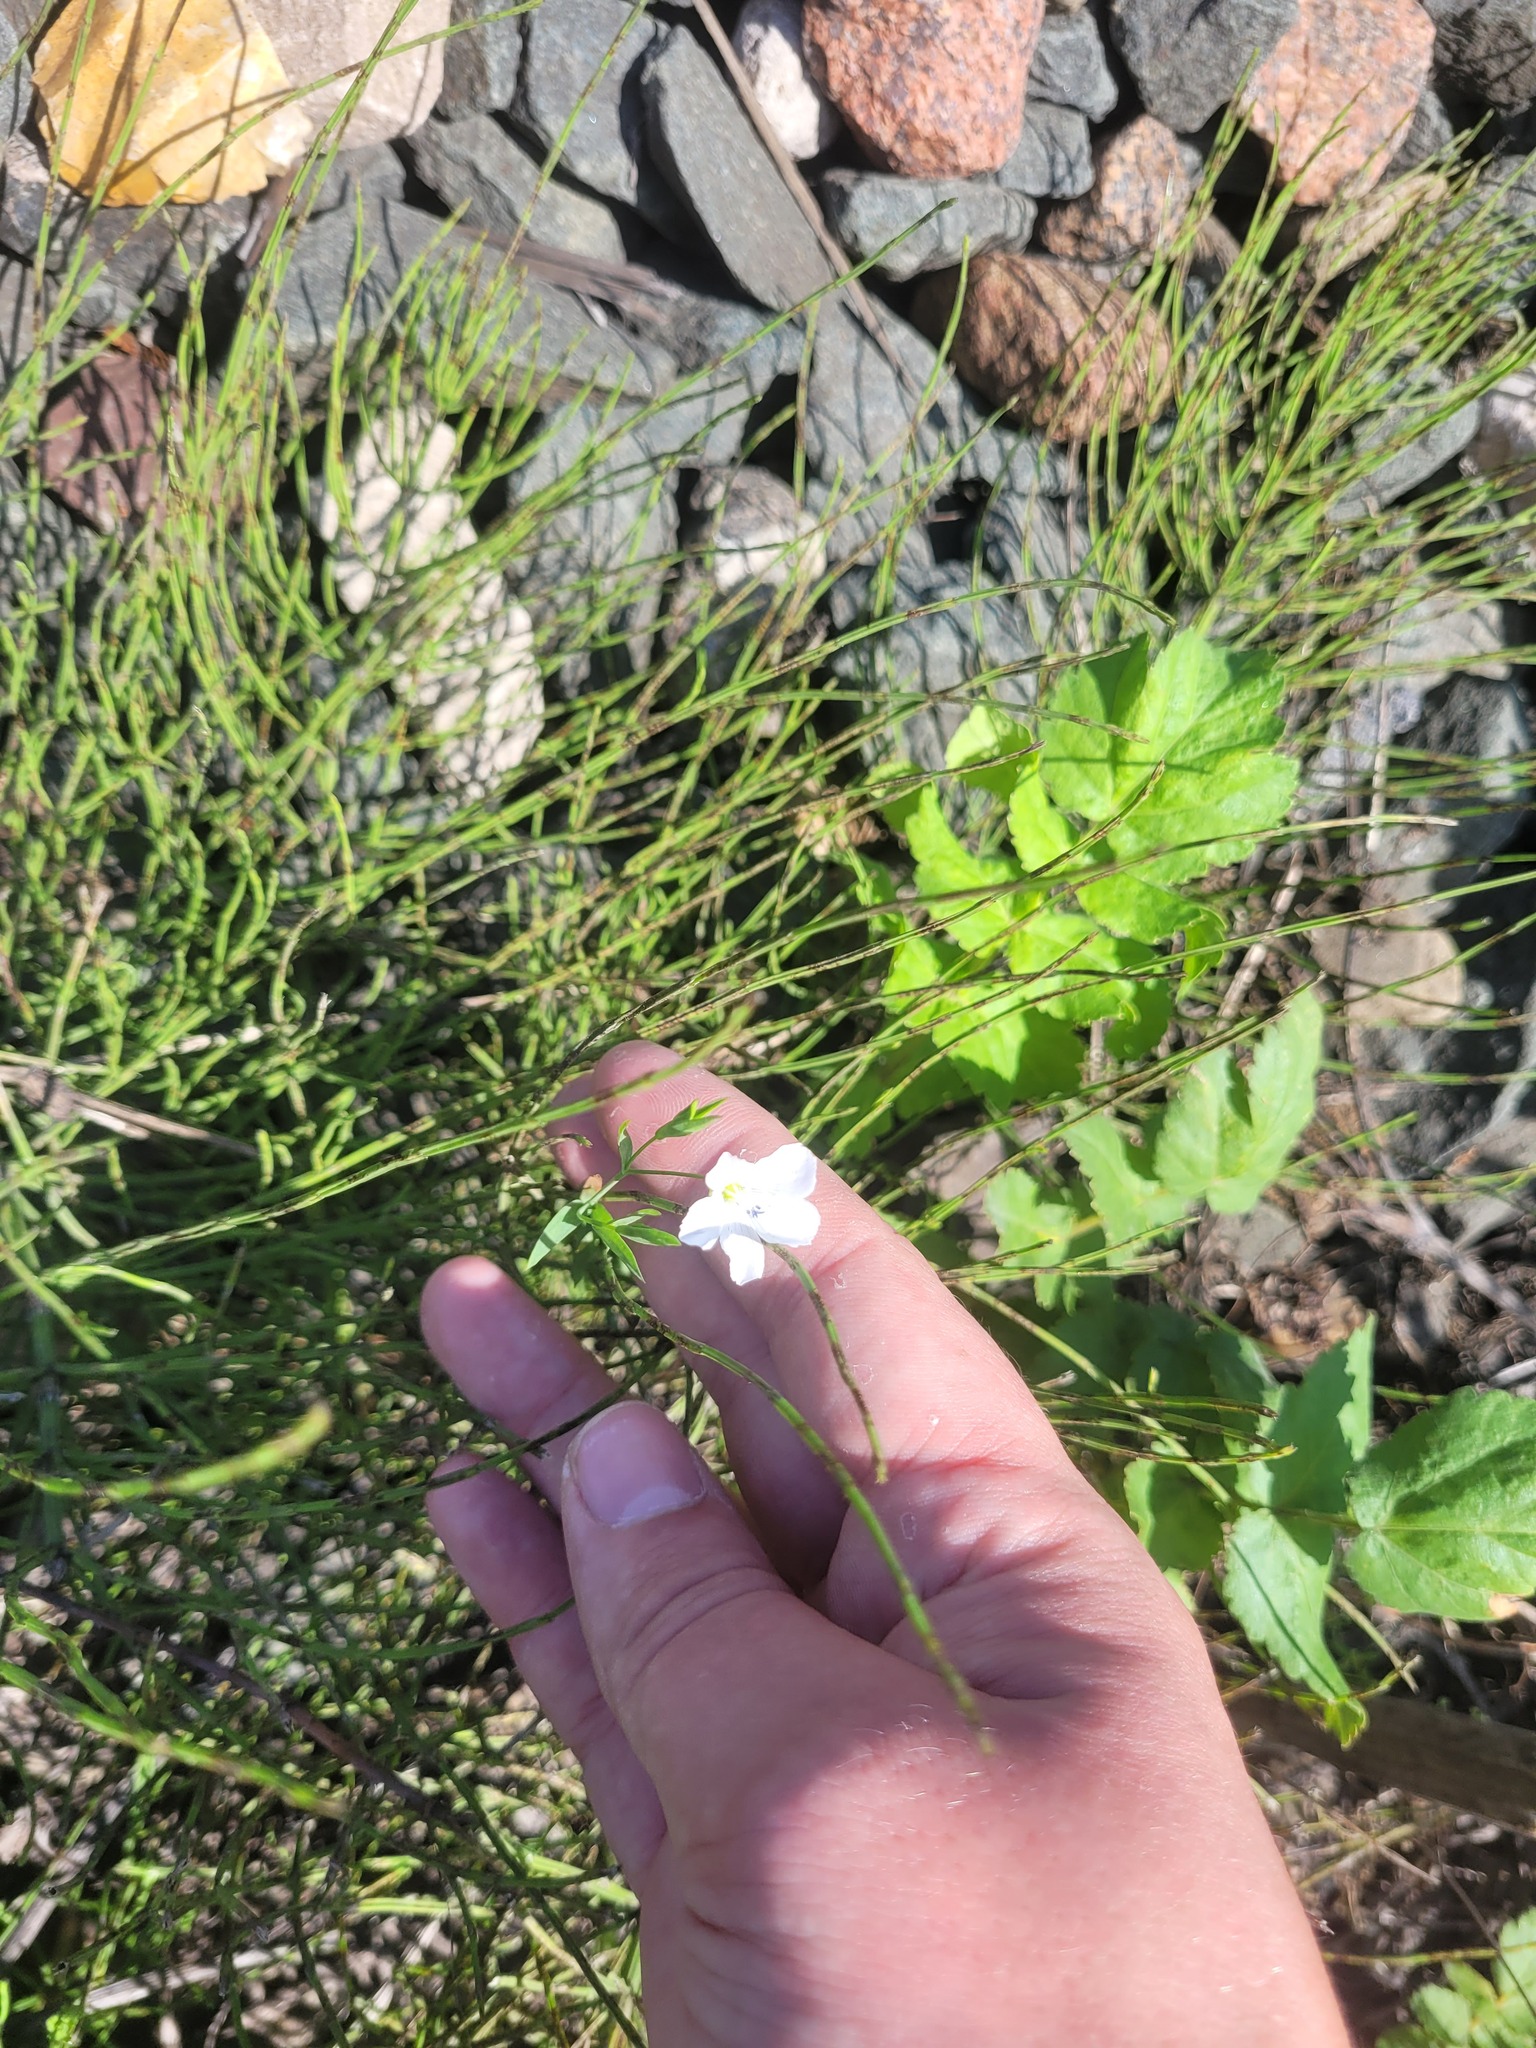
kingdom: Plantae
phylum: Tracheophyta
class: Magnoliopsida
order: Malpighiales
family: Linaceae
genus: Linum
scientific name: Linum usitatissimum
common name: Flax
